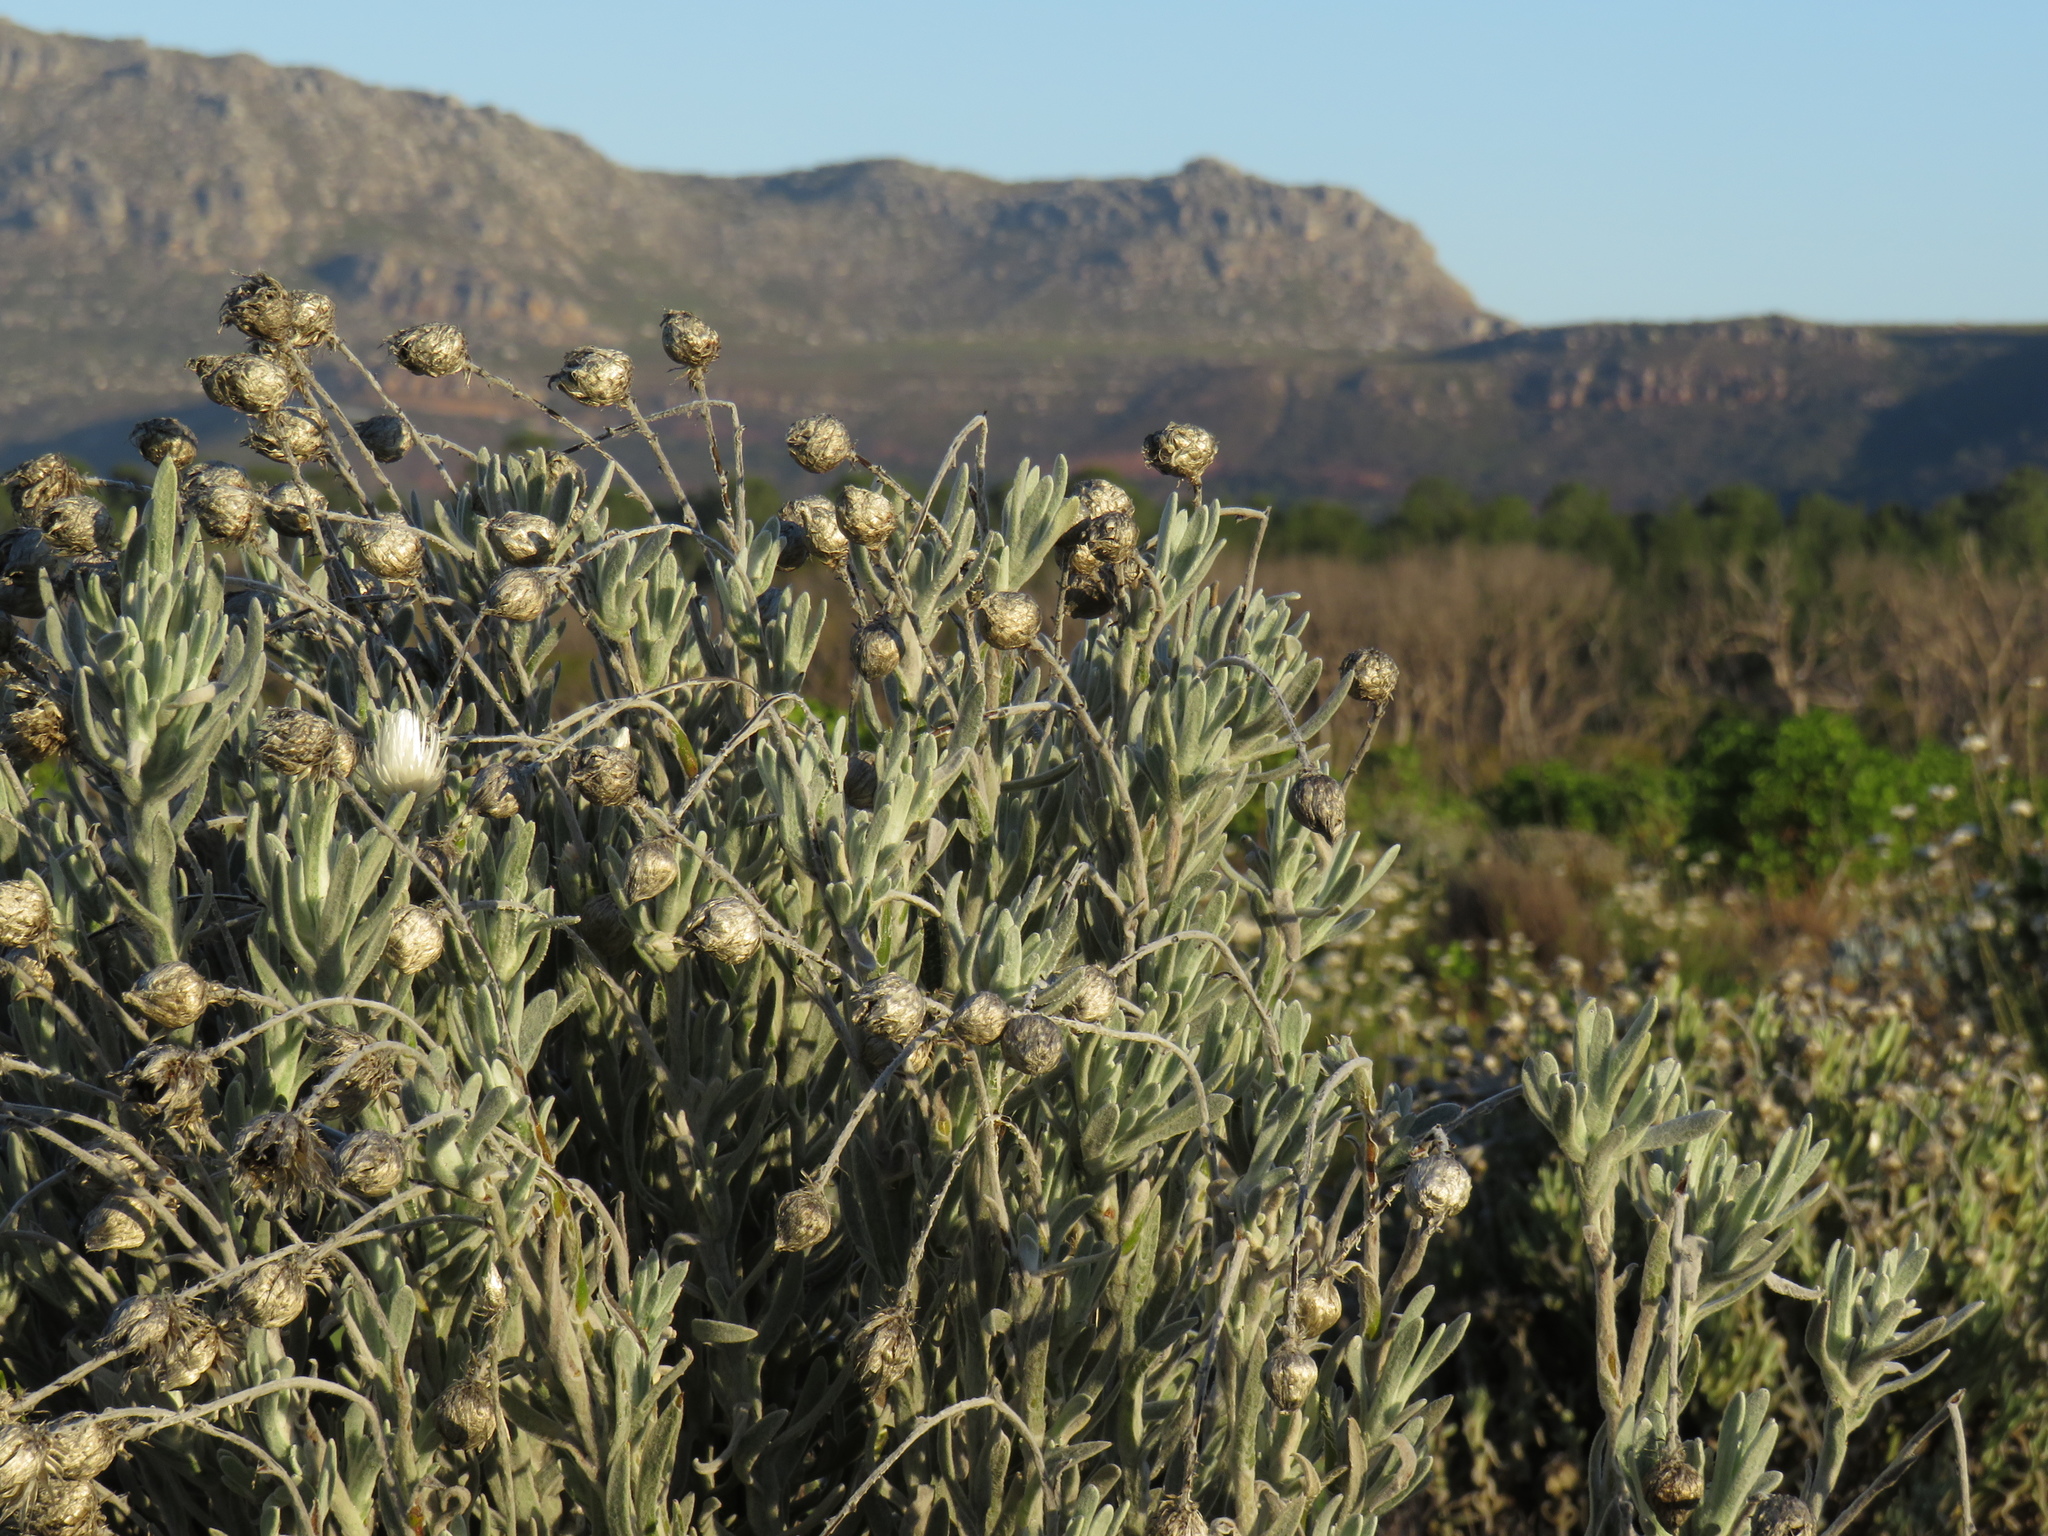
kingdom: Plantae
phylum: Tracheophyta
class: Magnoliopsida
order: Asterales
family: Asteraceae
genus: Syncarpha
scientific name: Syncarpha vestita
